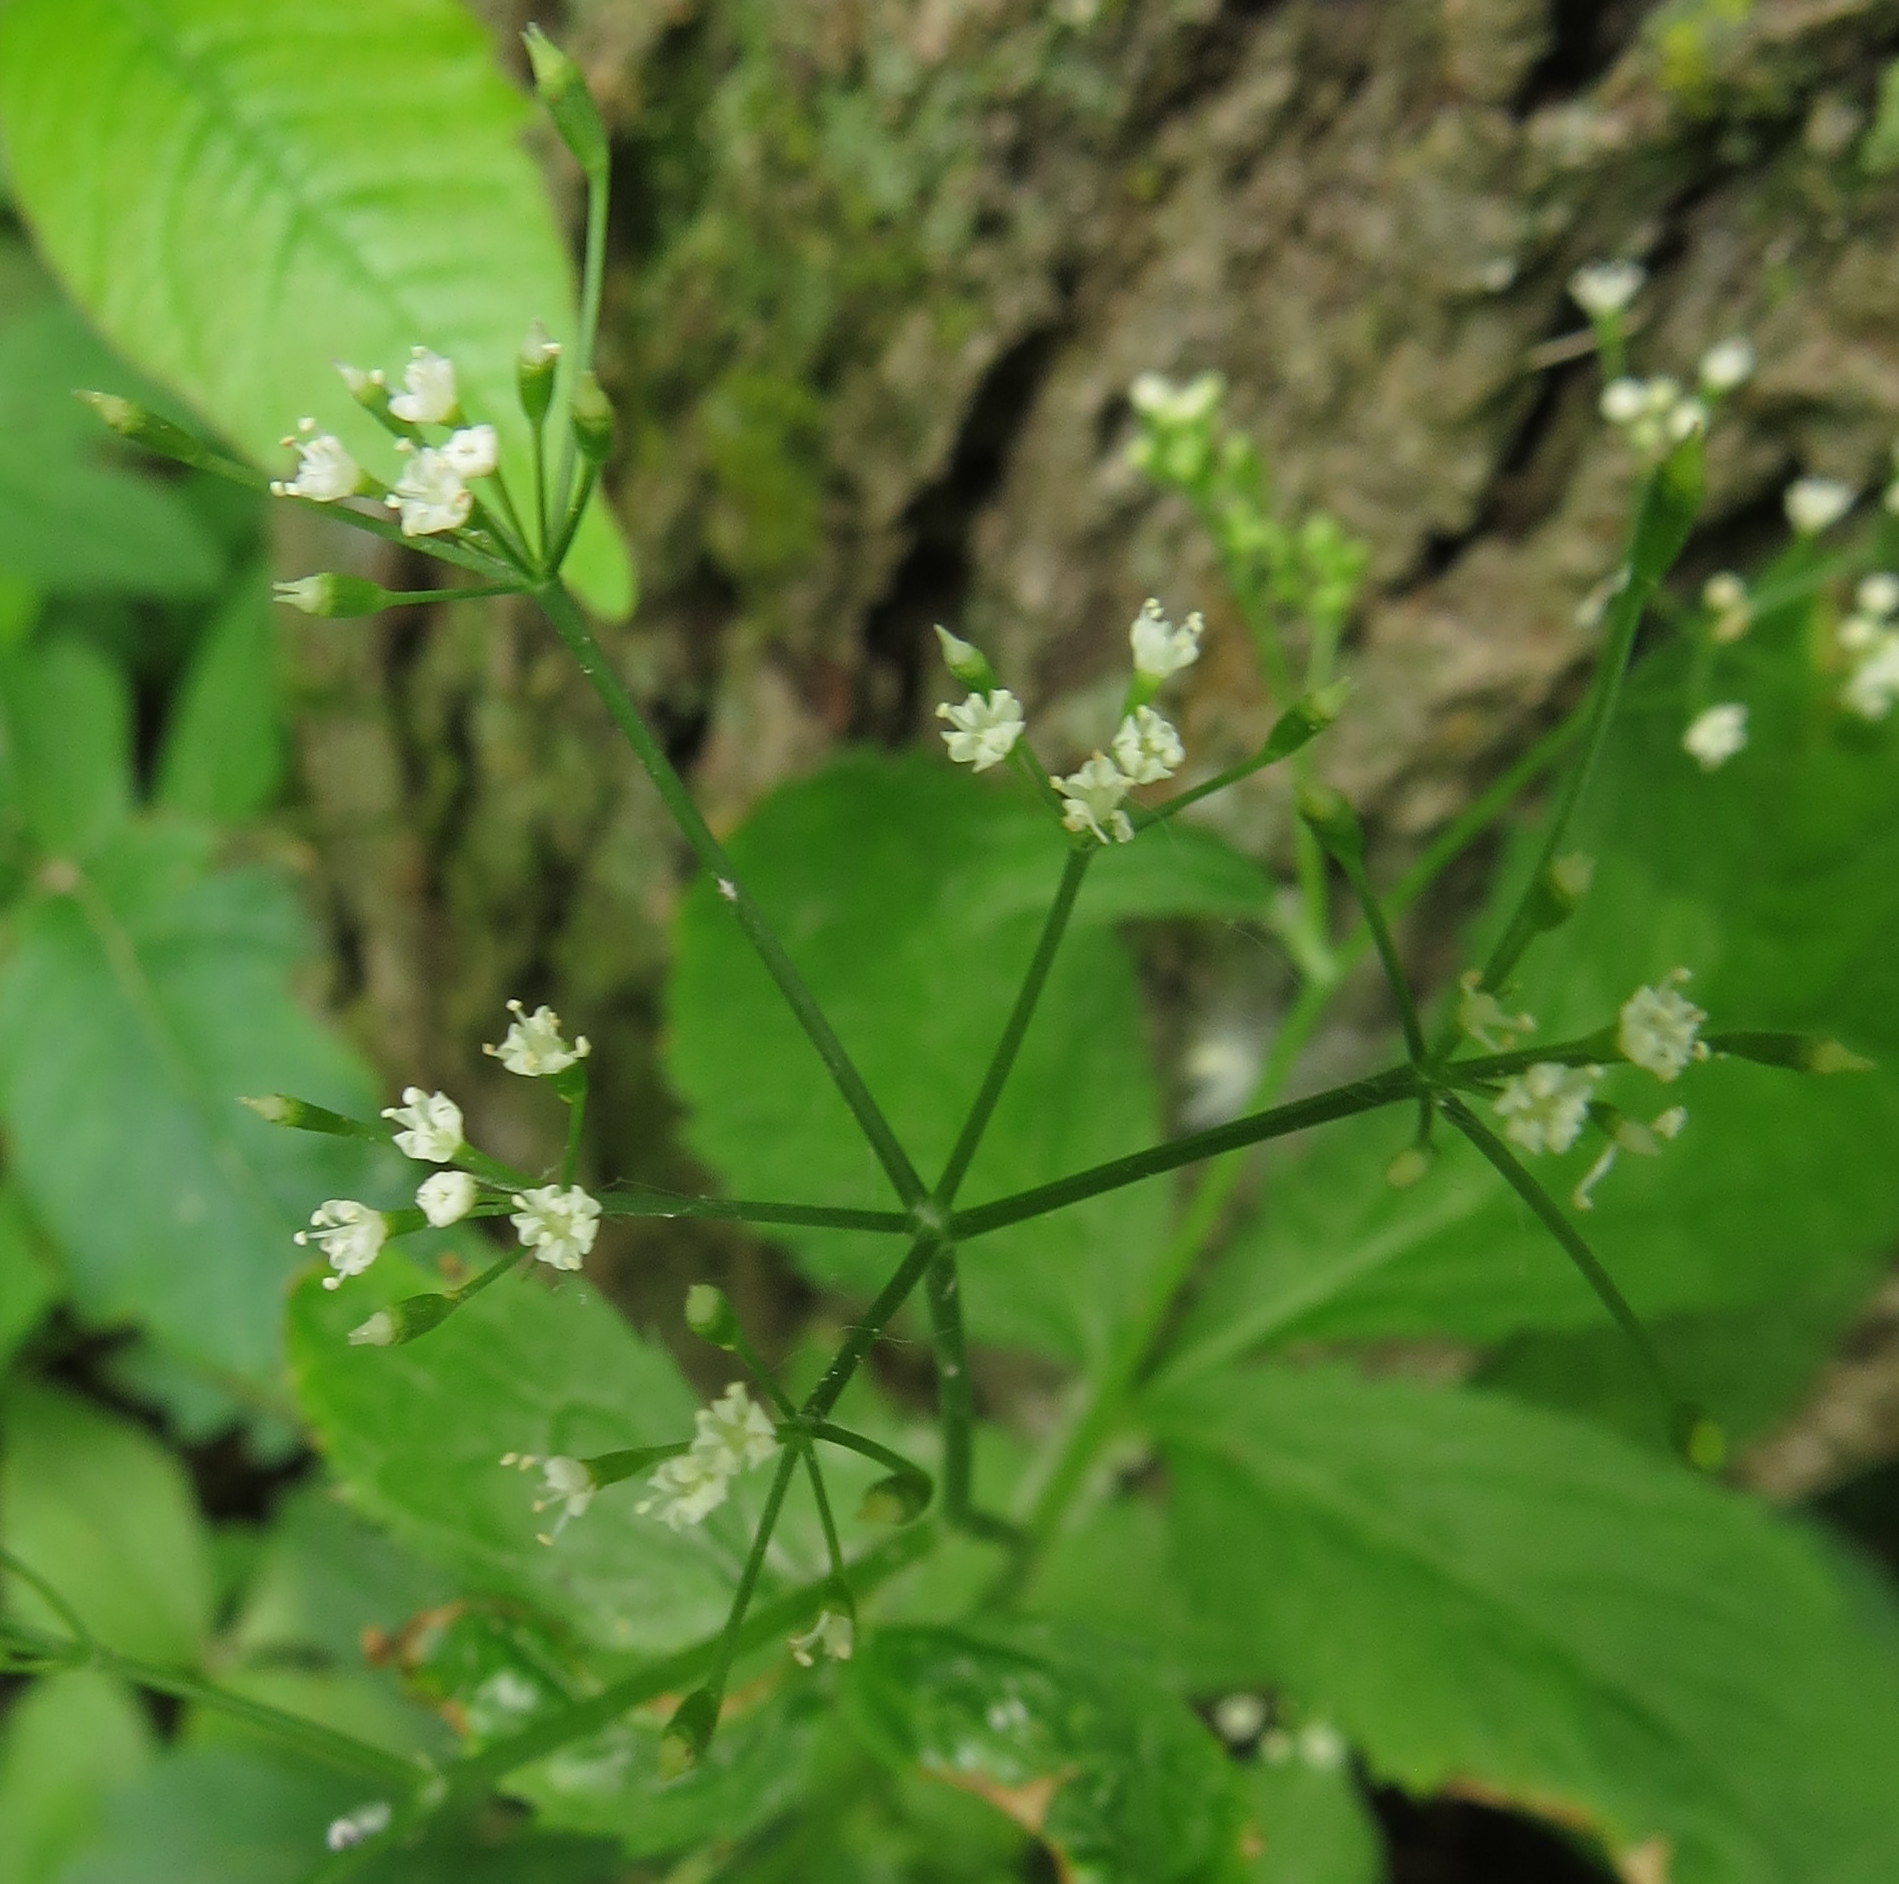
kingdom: Plantae
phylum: Tracheophyta
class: Magnoliopsida
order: Apiales
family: Apiaceae
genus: Cryptotaenia
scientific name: Cryptotaenia canadensis
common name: Honewort
